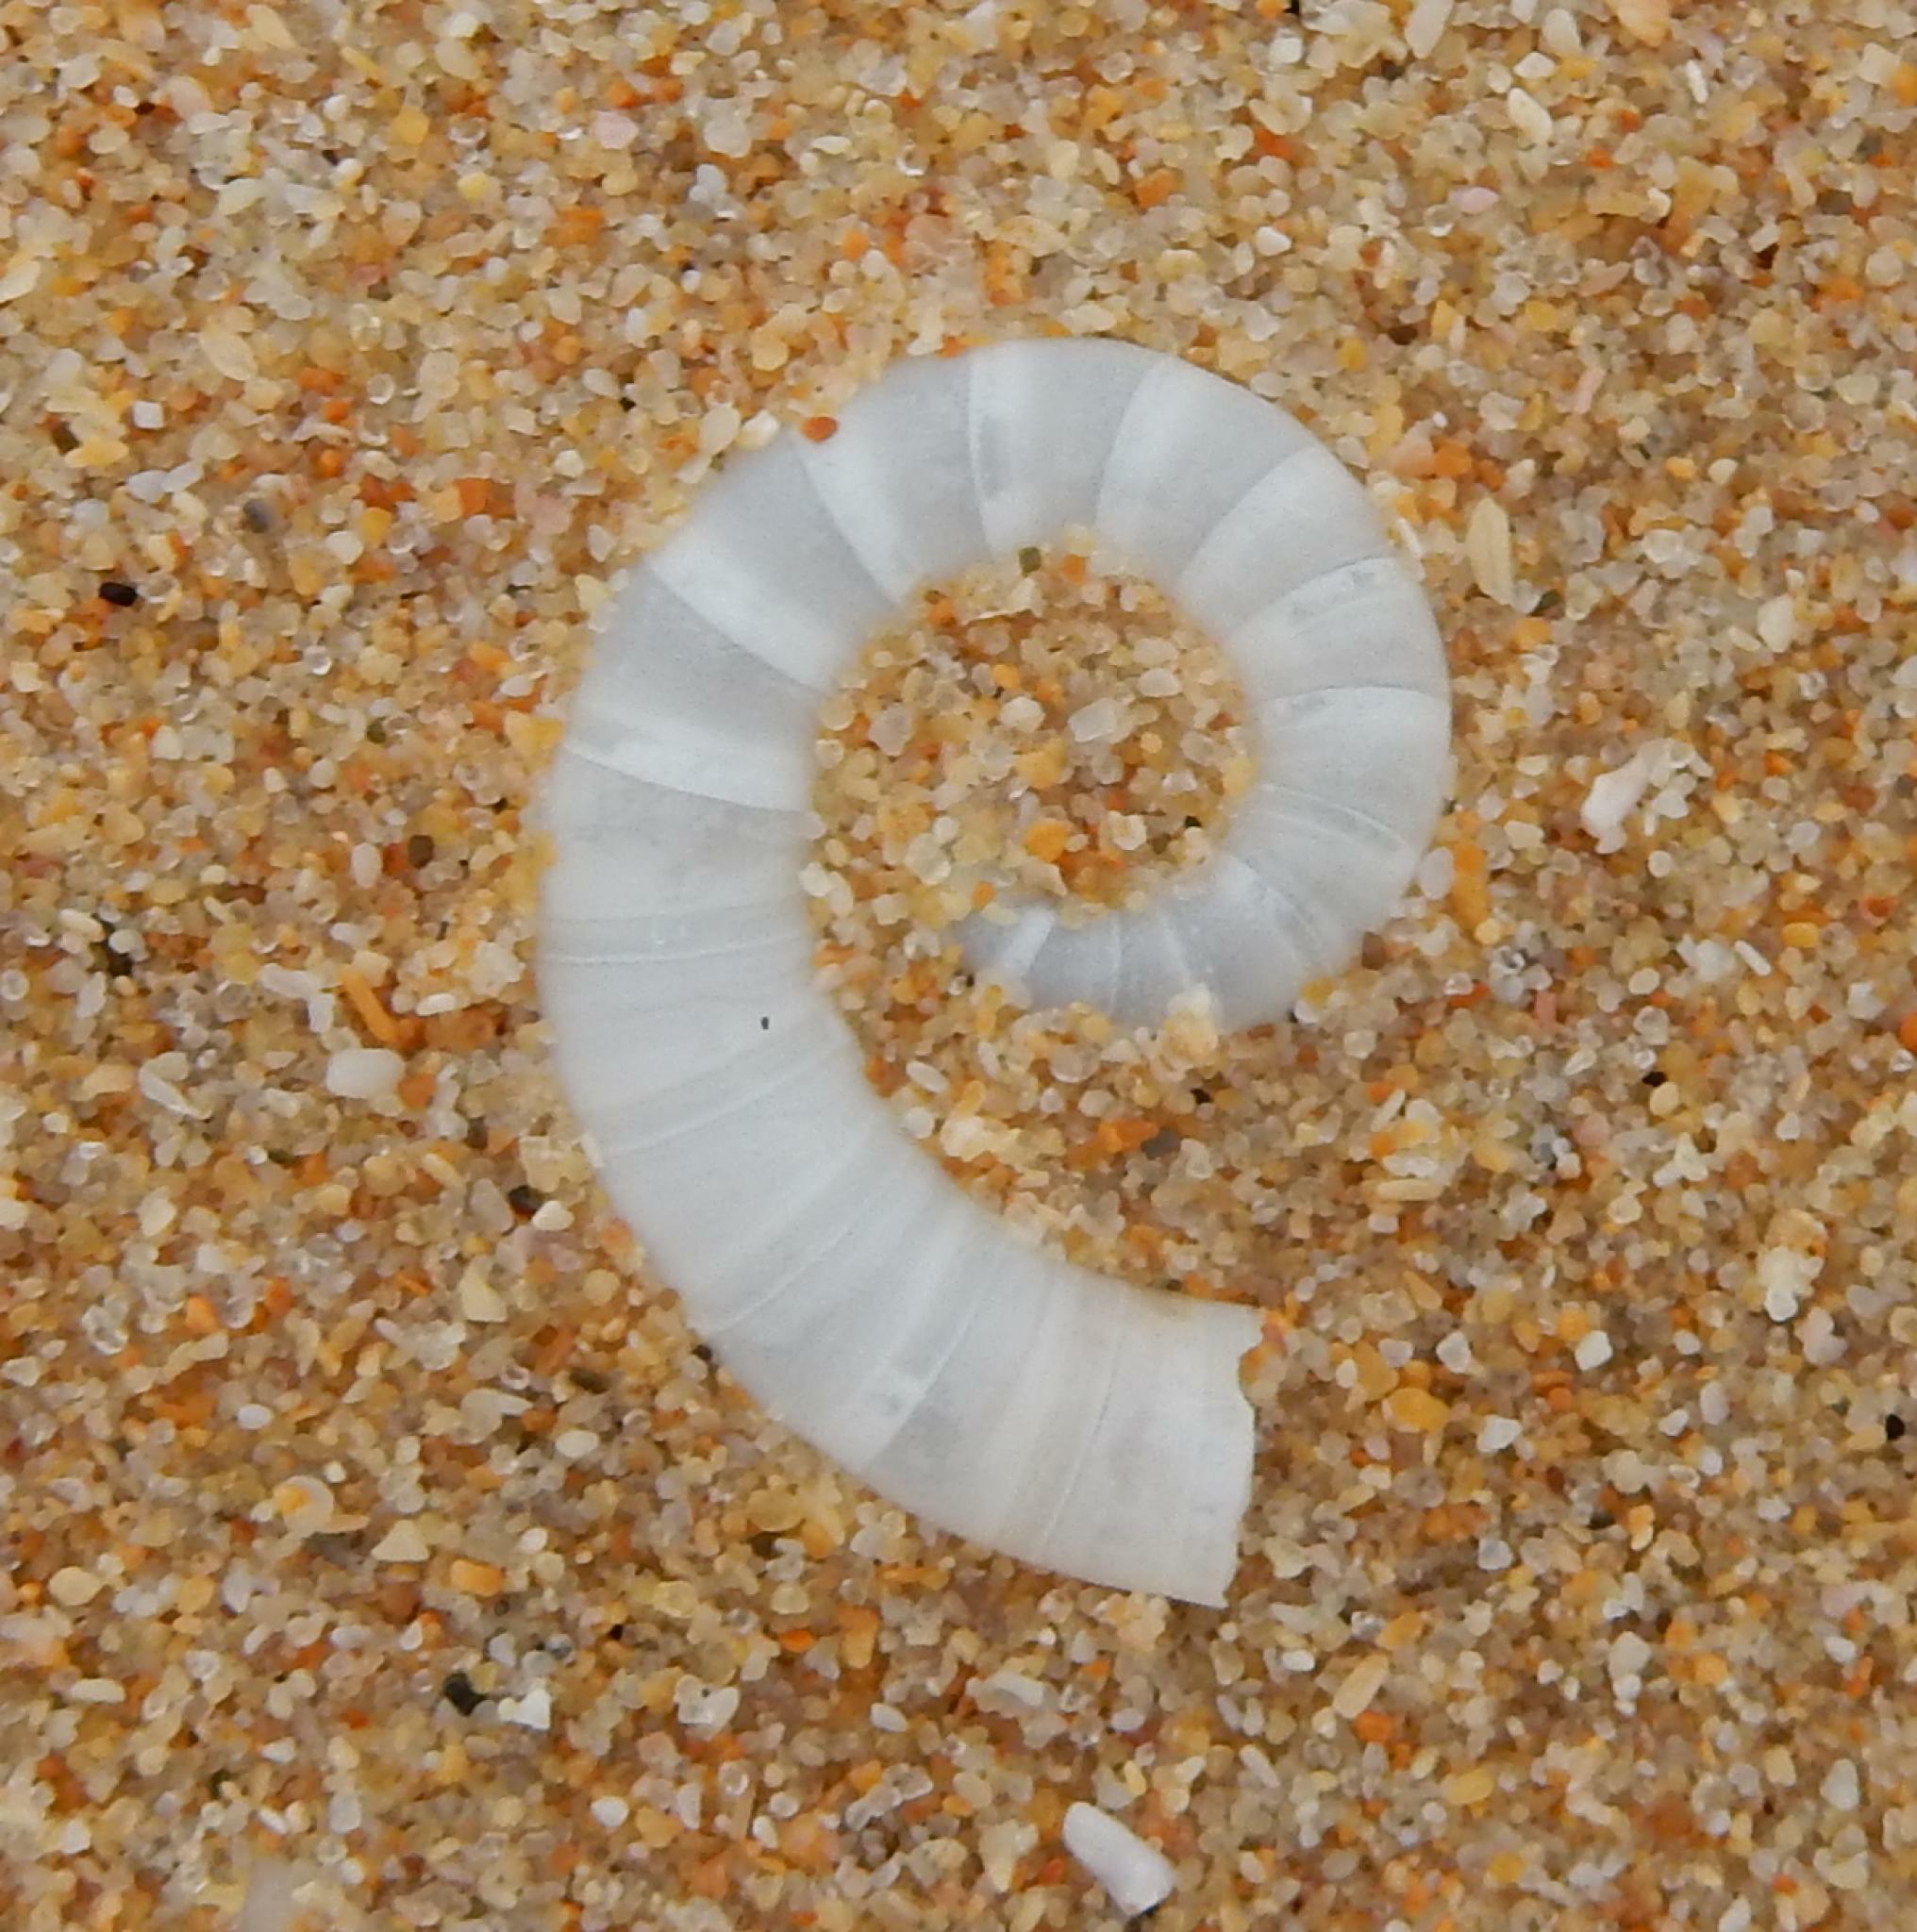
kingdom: Animalia
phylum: Mollusca
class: Cephalopoda
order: Spirulida
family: Spirulidae
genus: Spirula
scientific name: Spirula spirula
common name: Ram's horn squid
